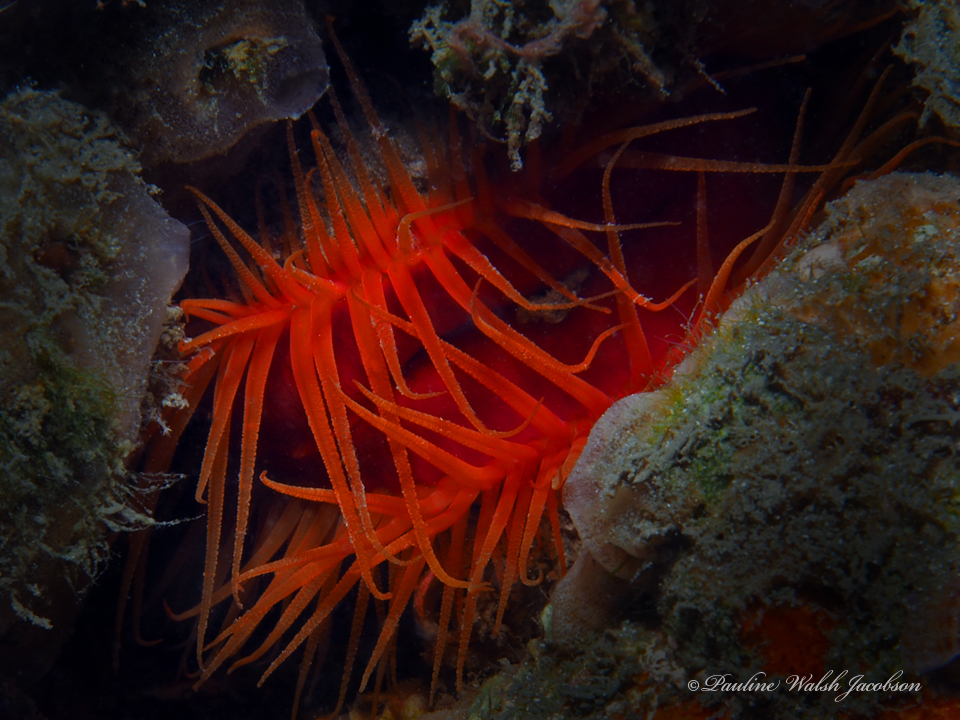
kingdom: Animalia
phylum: Mollusca
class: Bivalvia
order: Limida
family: Limidae
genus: Ctenoides
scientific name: Ctenoides scaber
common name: Rough fileclam
